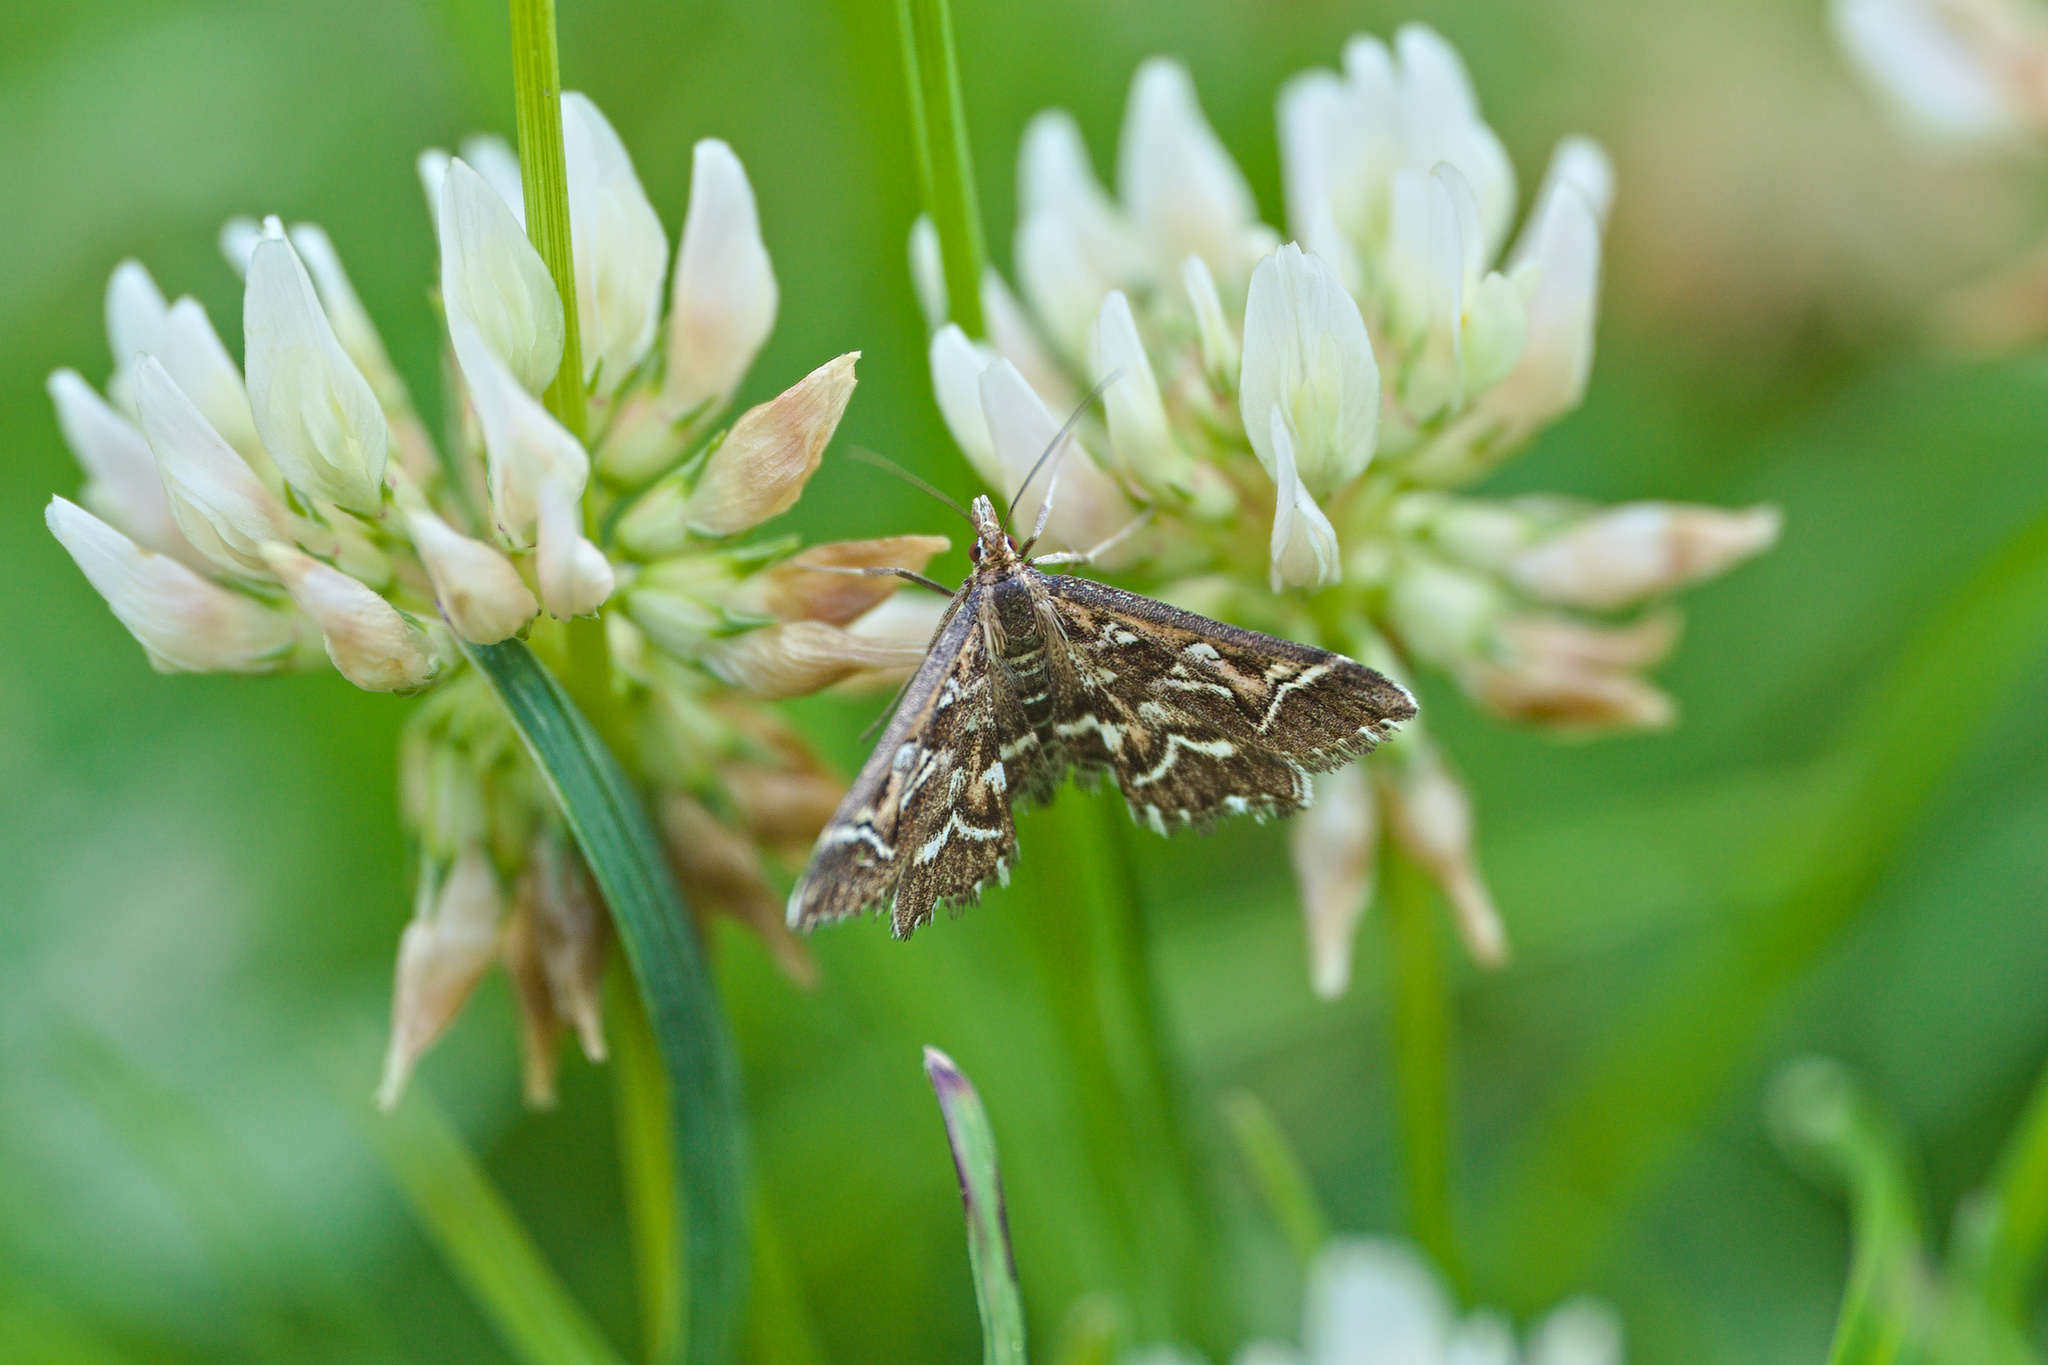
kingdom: Animalia
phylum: Arthropoda
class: Insecta
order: Lepidoptera
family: Crambidae
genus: Diasemia
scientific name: Diasemia reticularis
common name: Lettered china-mark
